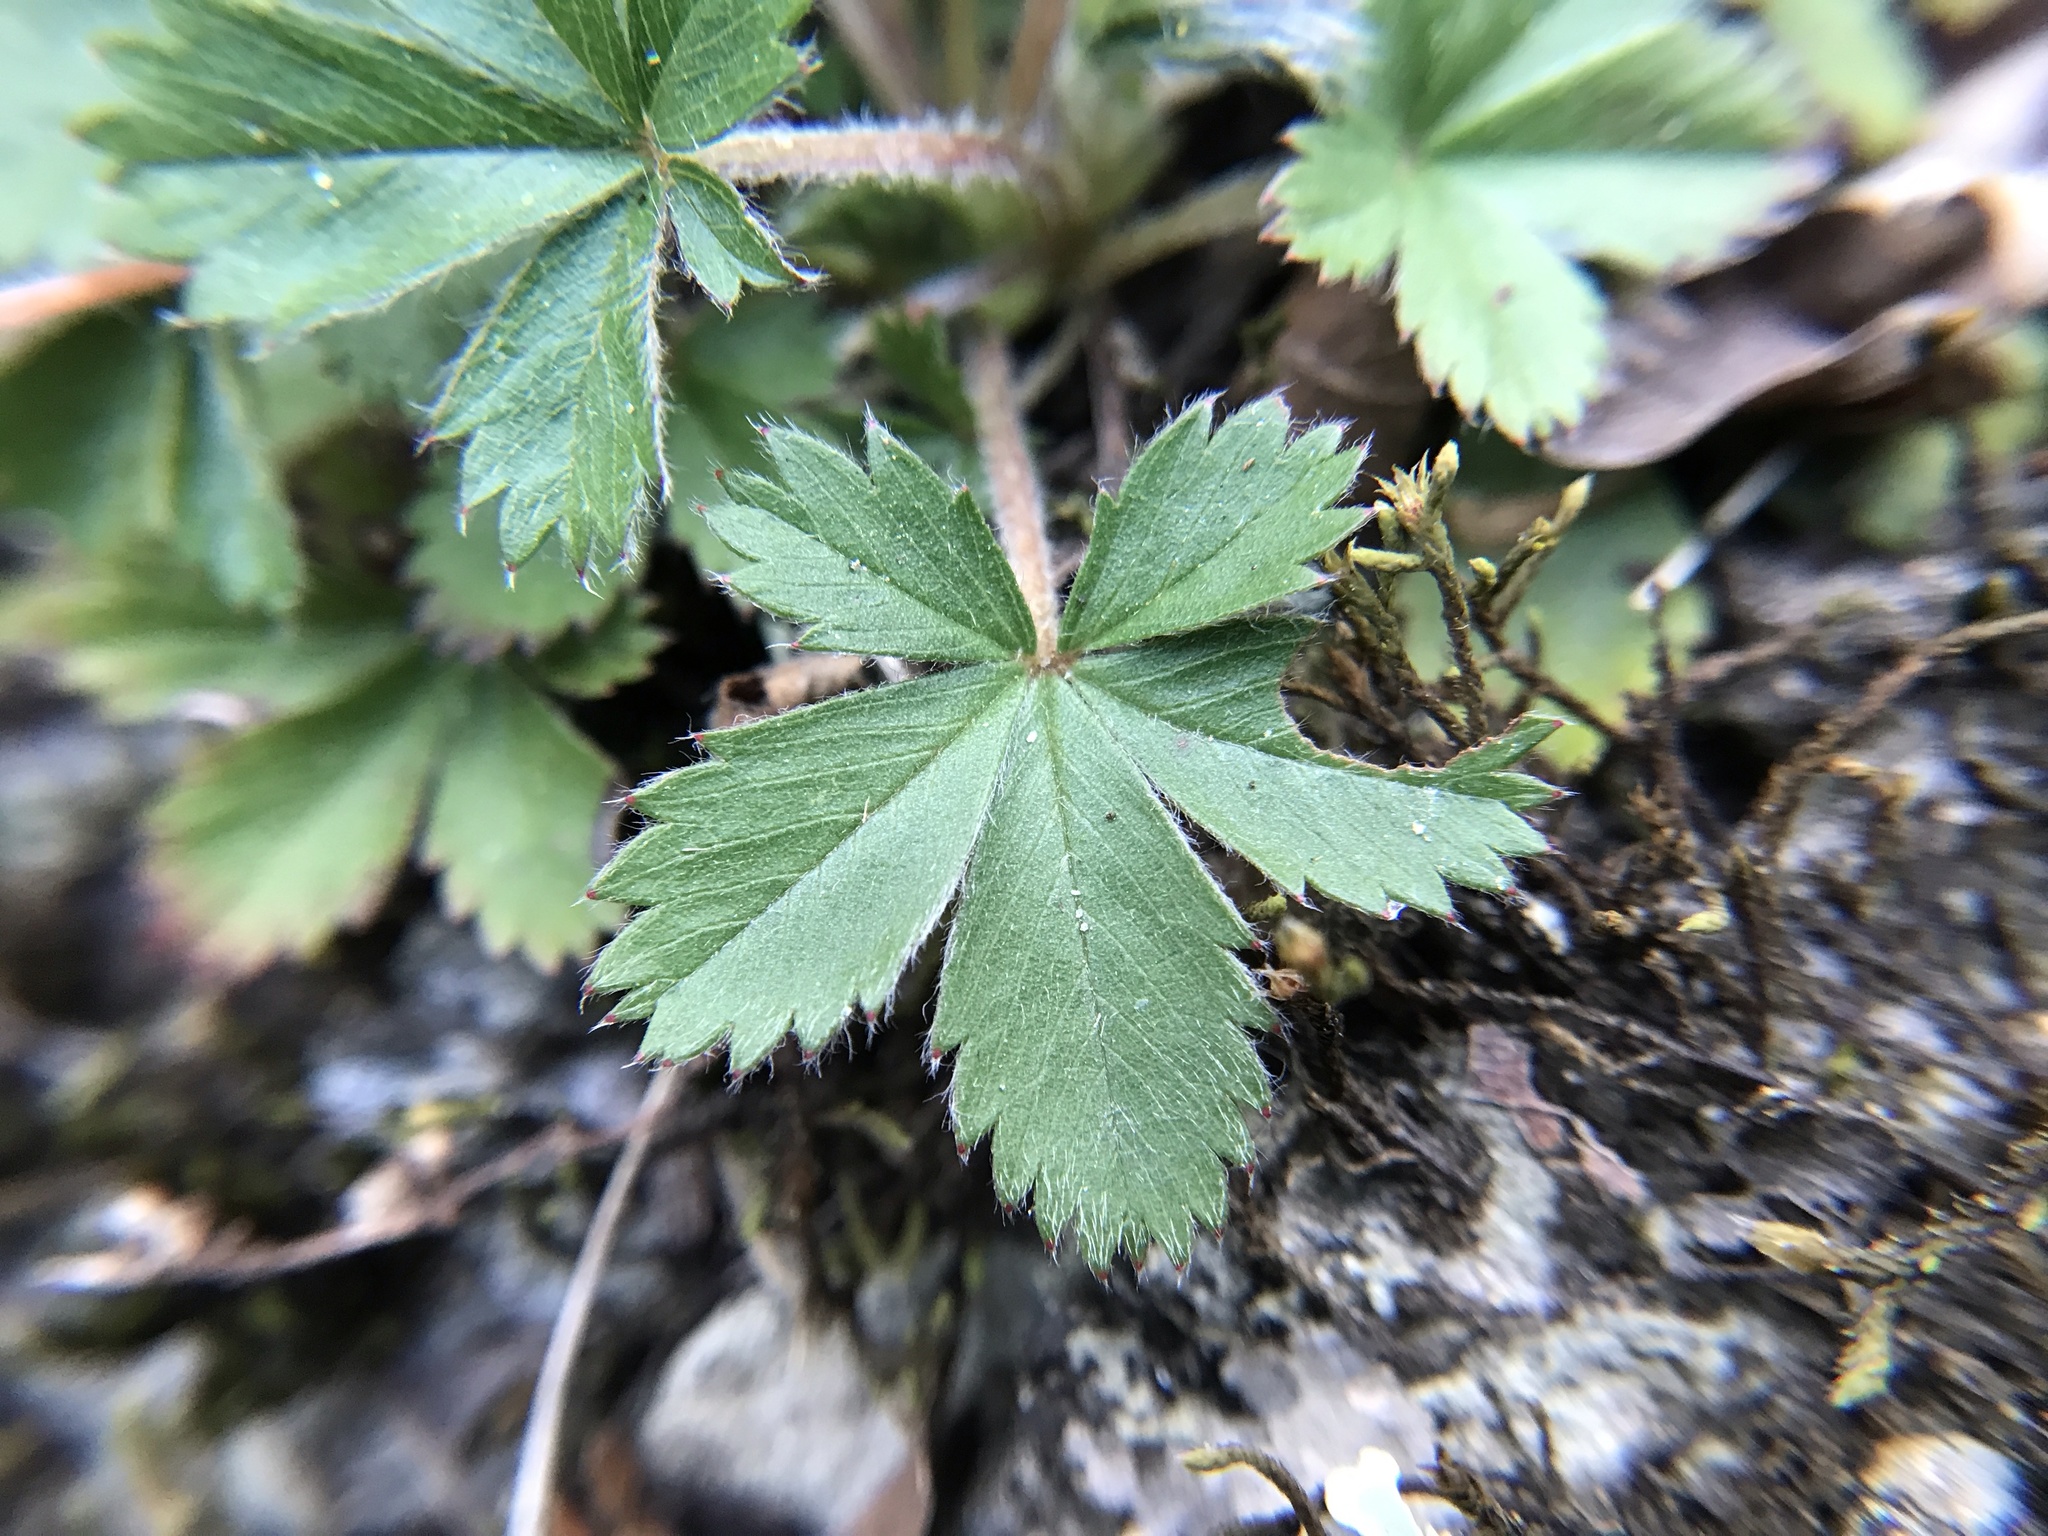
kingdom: Plantae
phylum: Tracheophyta
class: Magnoliopsida
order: Rosales
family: Rosaceae
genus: Potentilla
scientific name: Potentilla canadensis
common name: Canada cinquefoil
